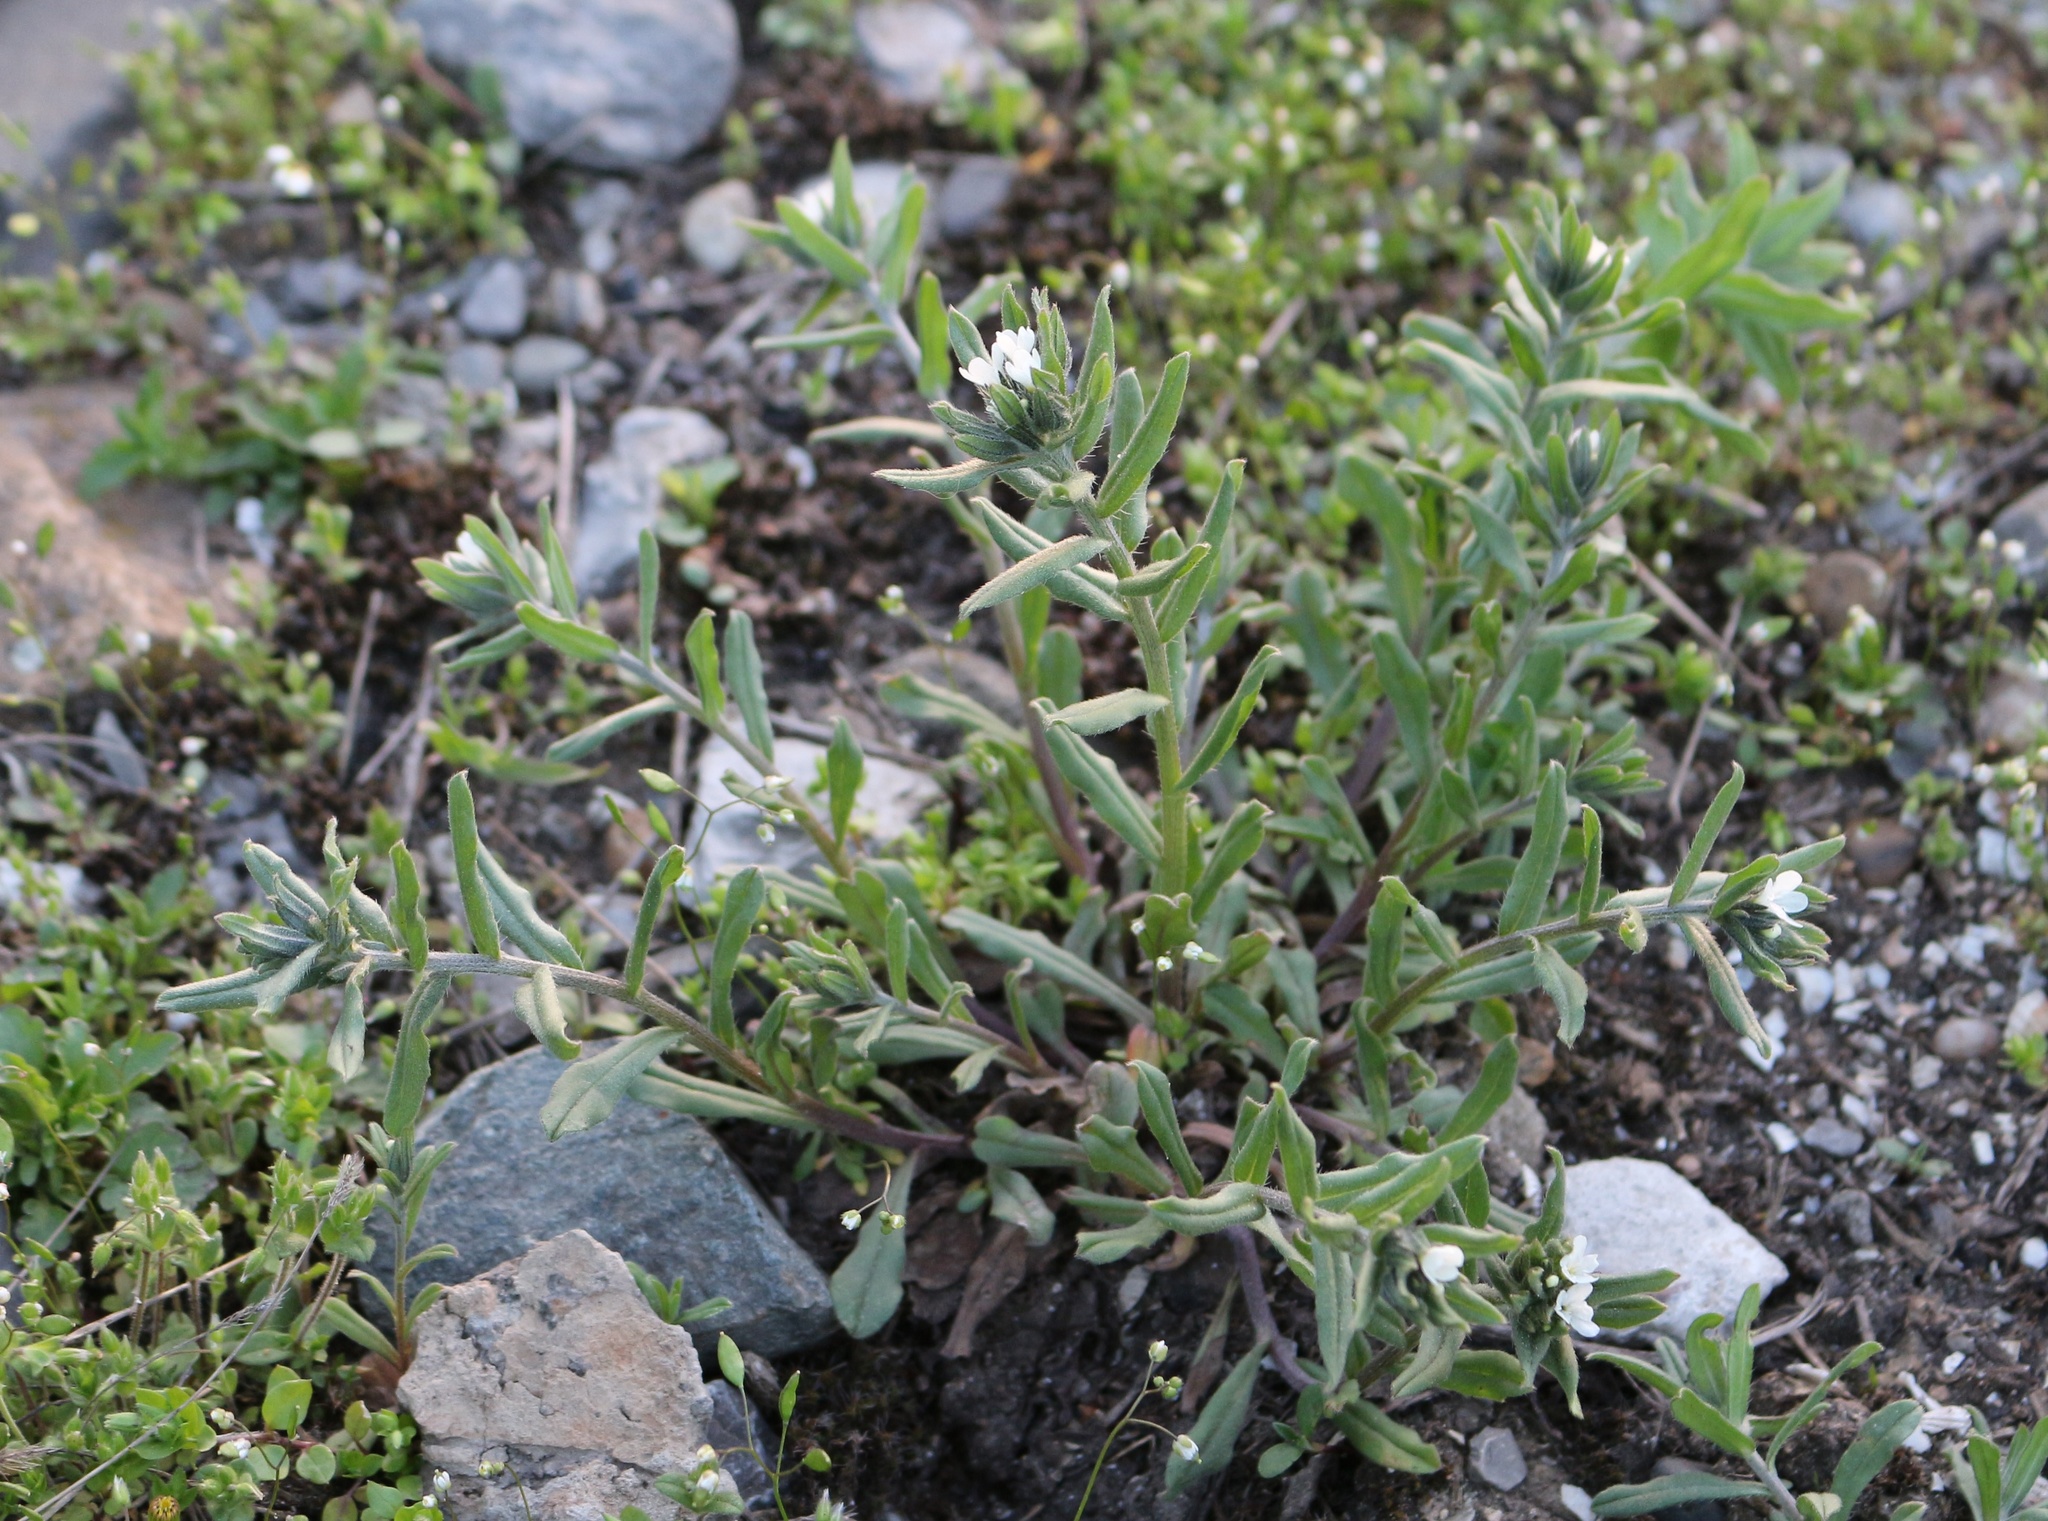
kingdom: Plantae
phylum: Tracheophyta
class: Magnoliopsida
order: Boraginales
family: Boraginaceae
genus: Buglossoides
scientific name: Buglossoides arvensis
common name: Corn gromwell
